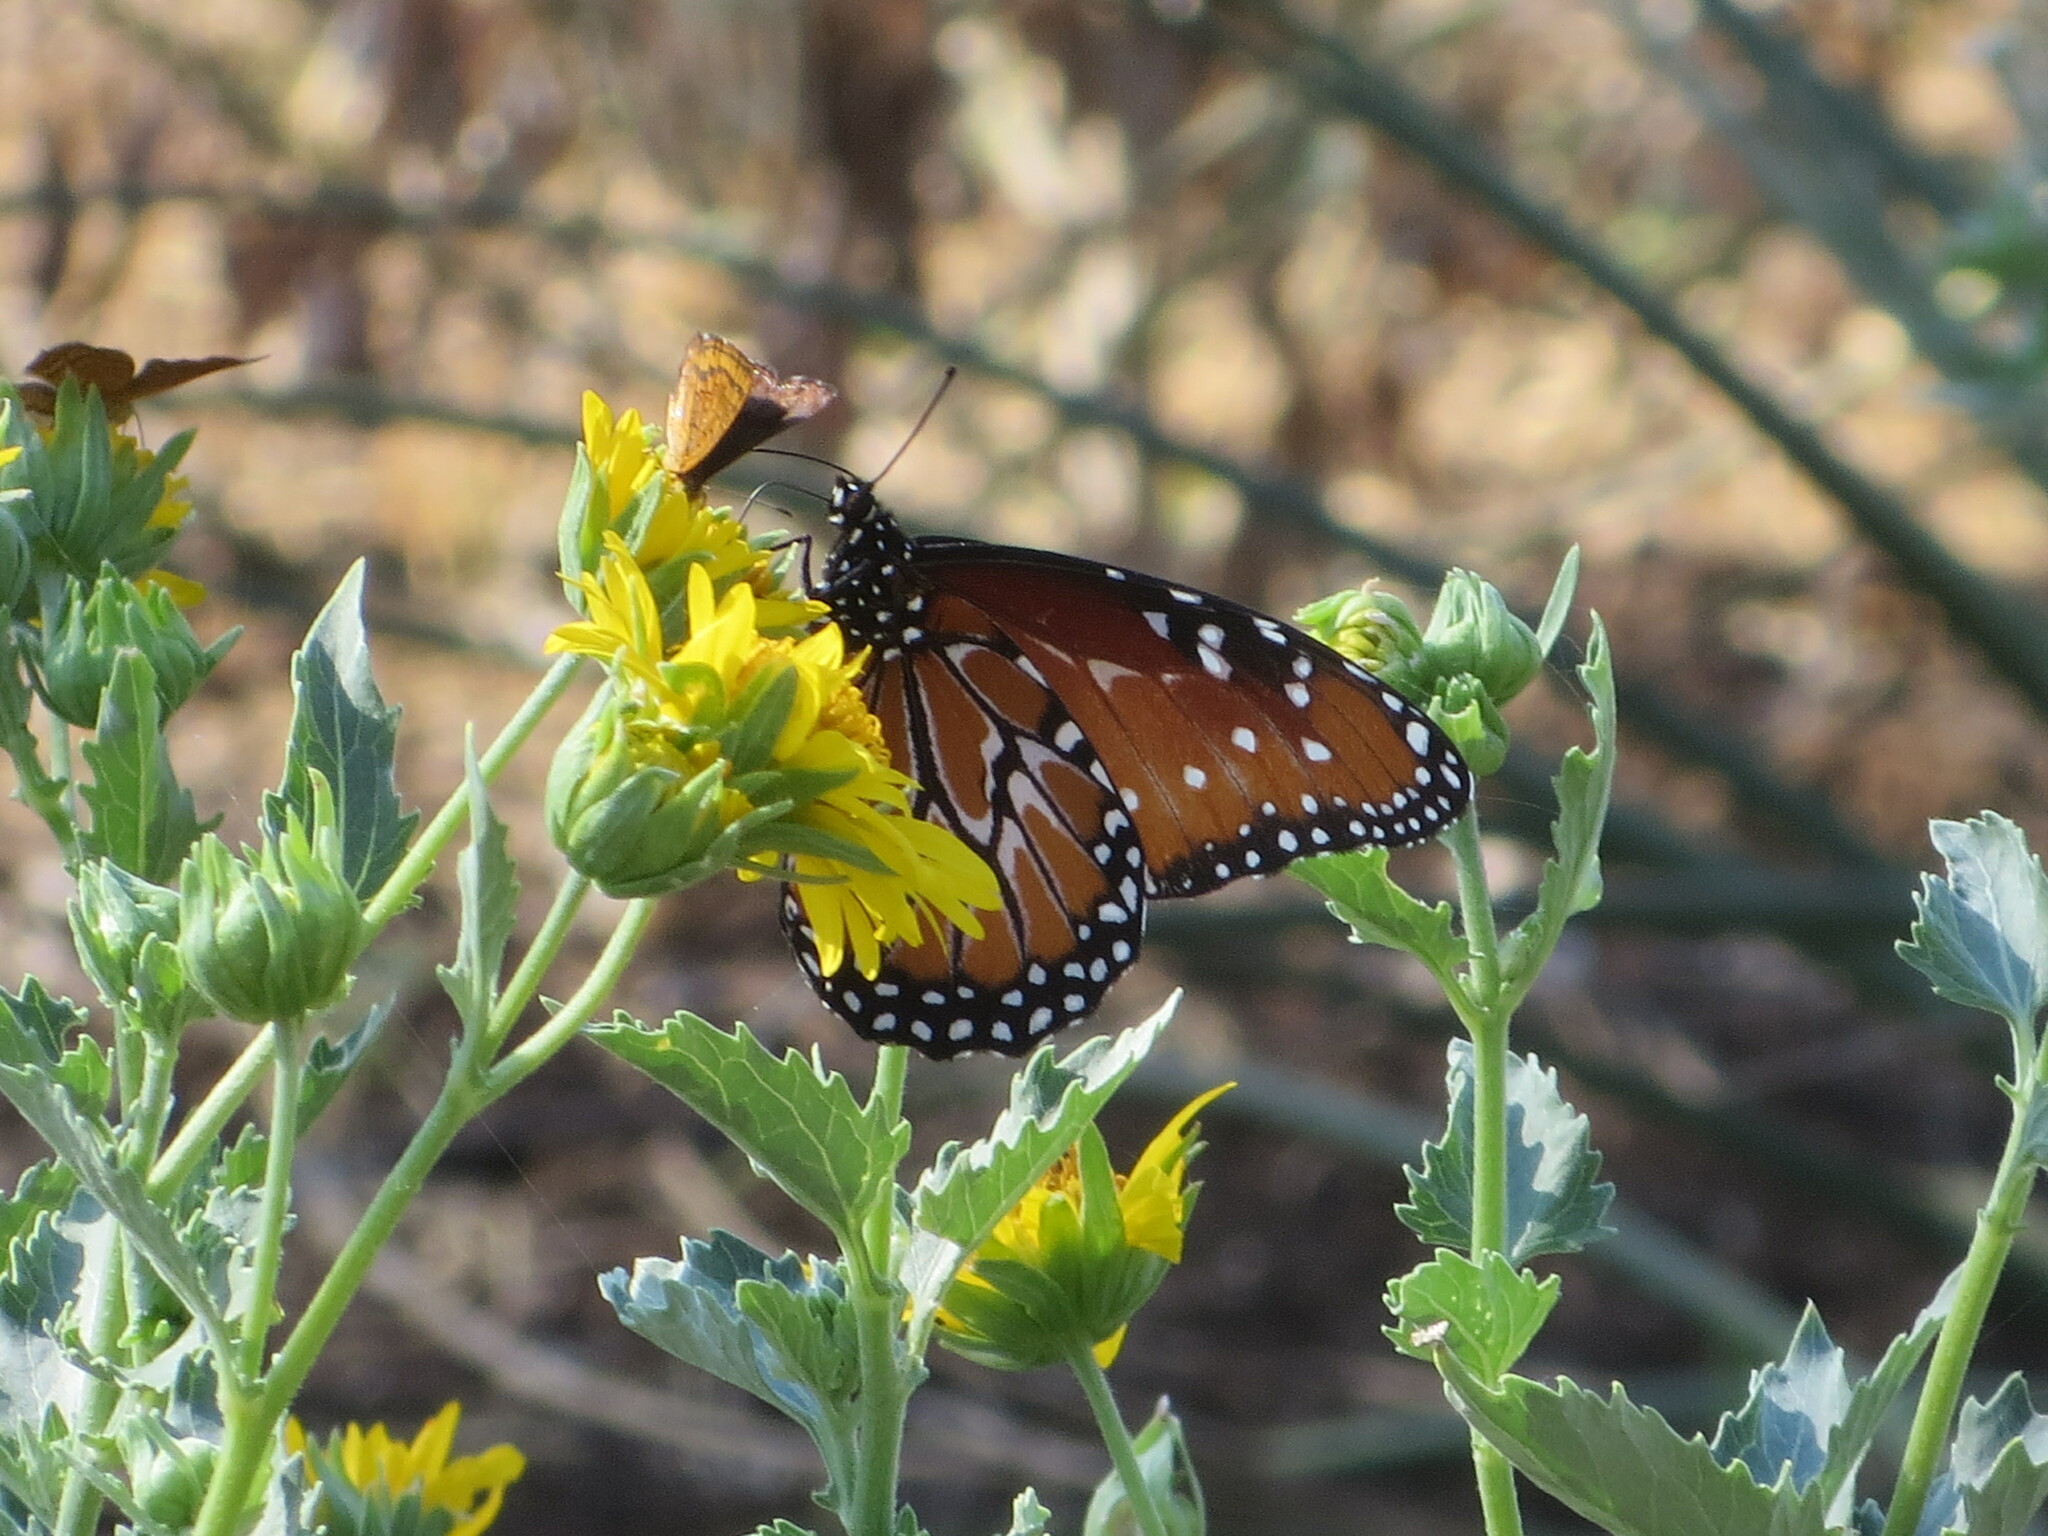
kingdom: Animalia
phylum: Arthropoda
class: Insecta
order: Lepidoptera
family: Nymphalidae
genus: Danaus
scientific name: Danaus gilippus
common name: Queen
